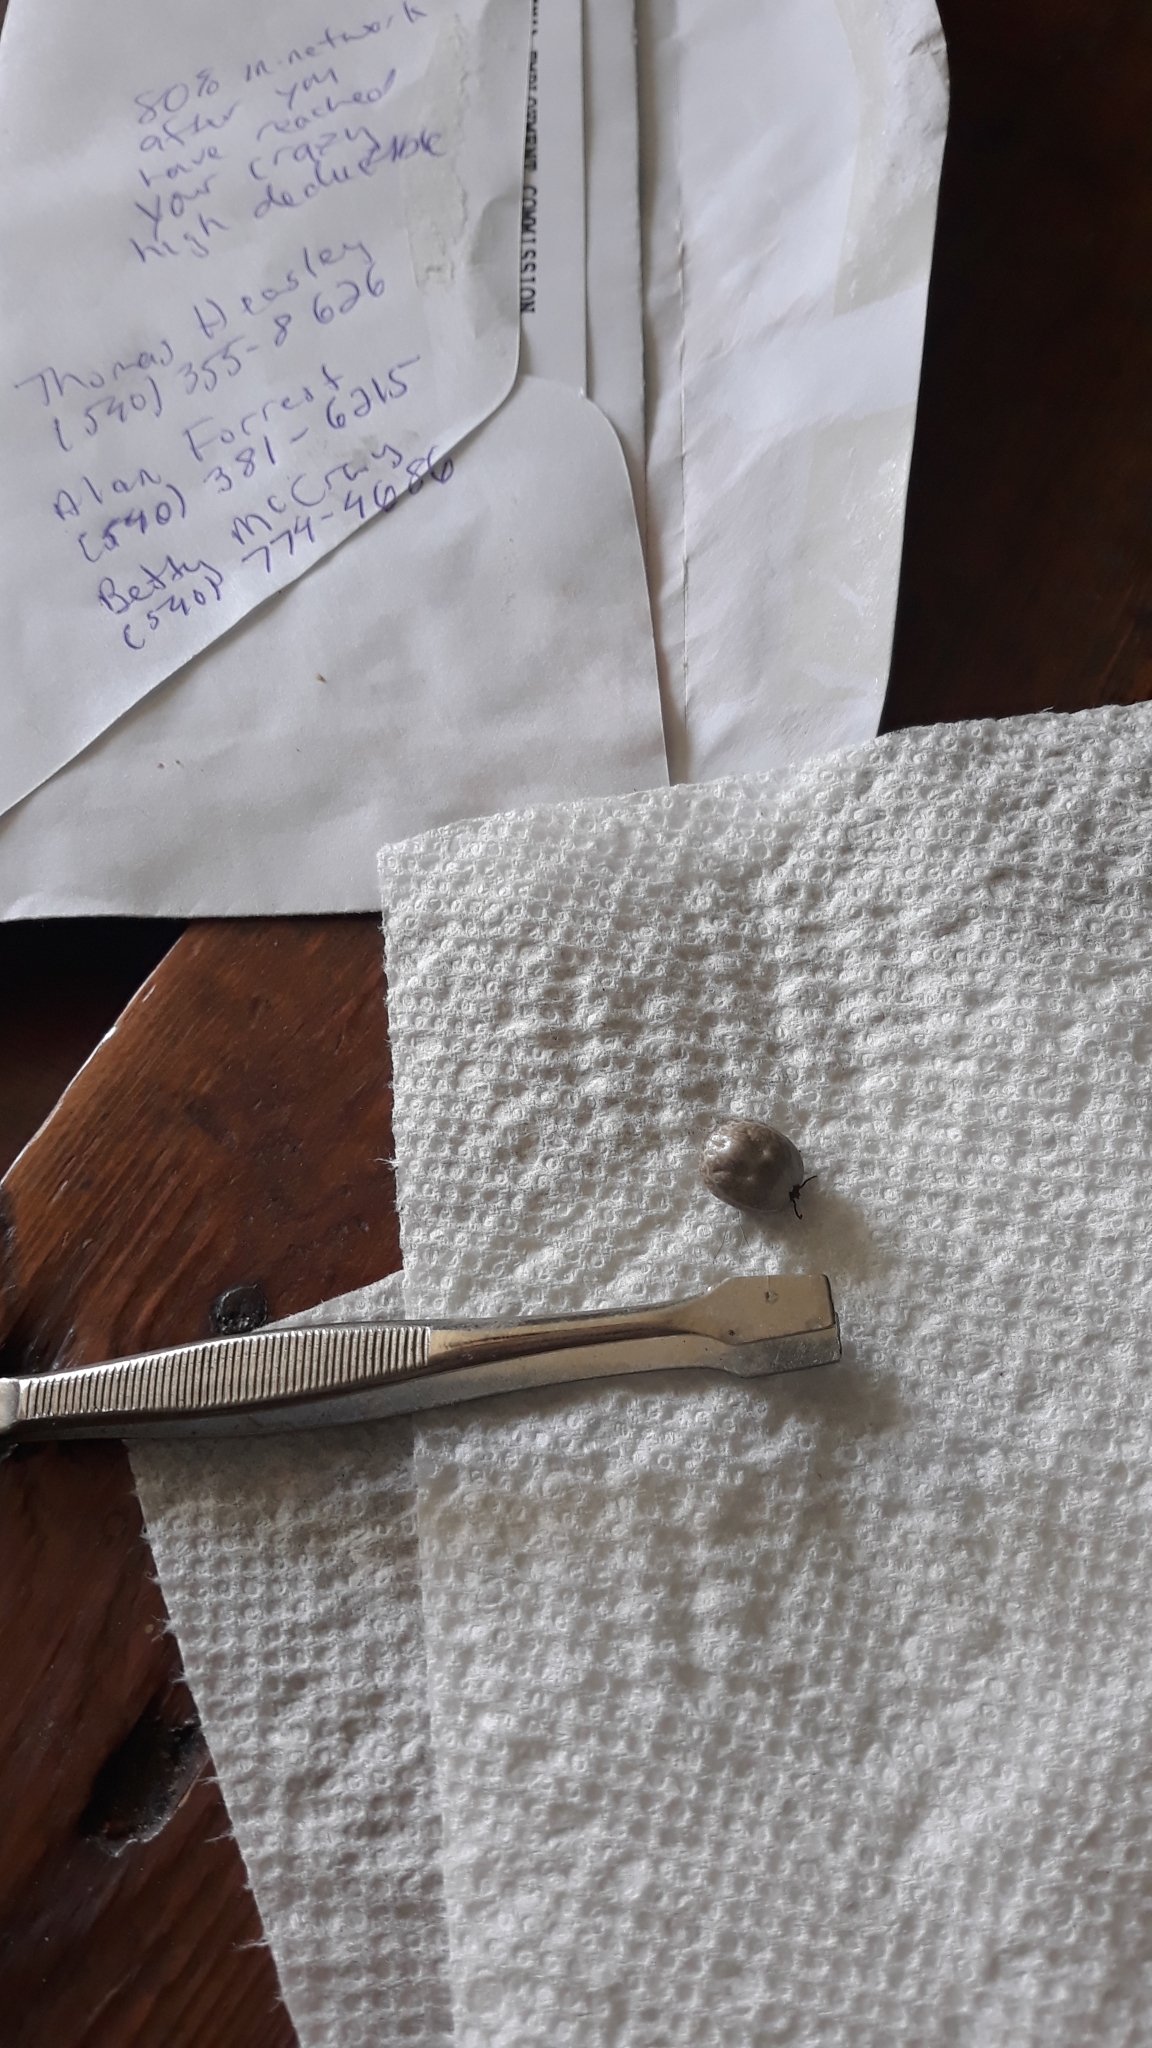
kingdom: Animalia
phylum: Arthropoda
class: Arachnida
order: Ixodida
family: Ixodidae
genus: Amblyomma
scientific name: Amblyomma americanum
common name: Lone star tick
